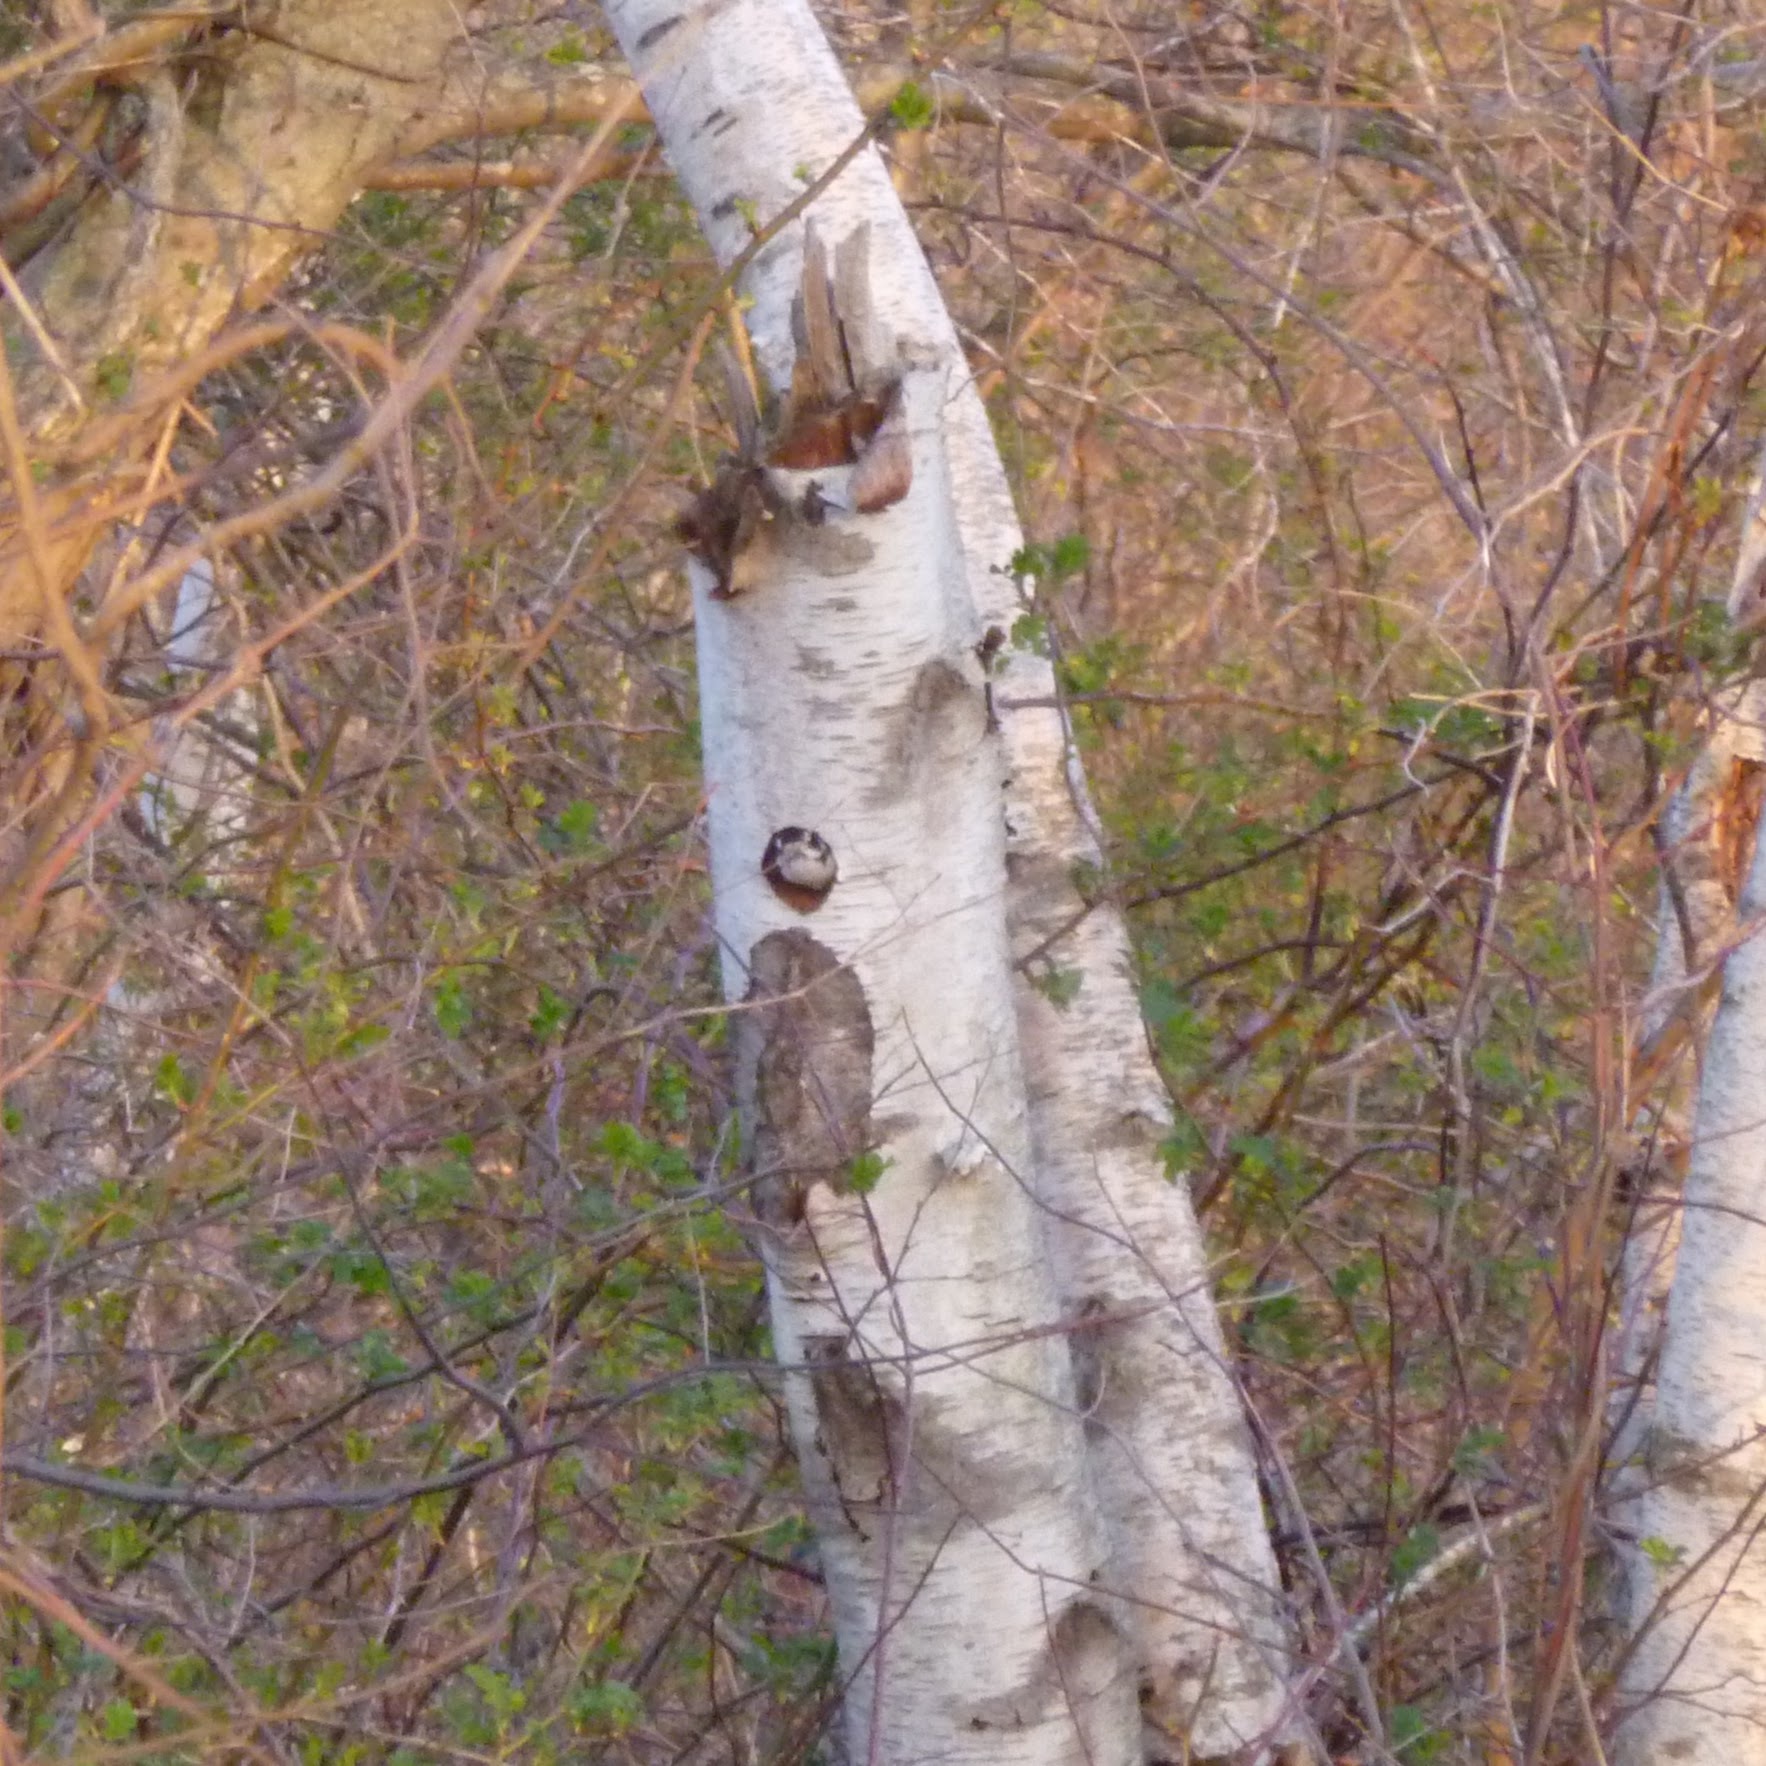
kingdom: Animalia
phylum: Chordata
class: Aves
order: Piciformes
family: Picidae
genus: Dryobates
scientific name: Dryobates pubescens
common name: Downy woodpecker
